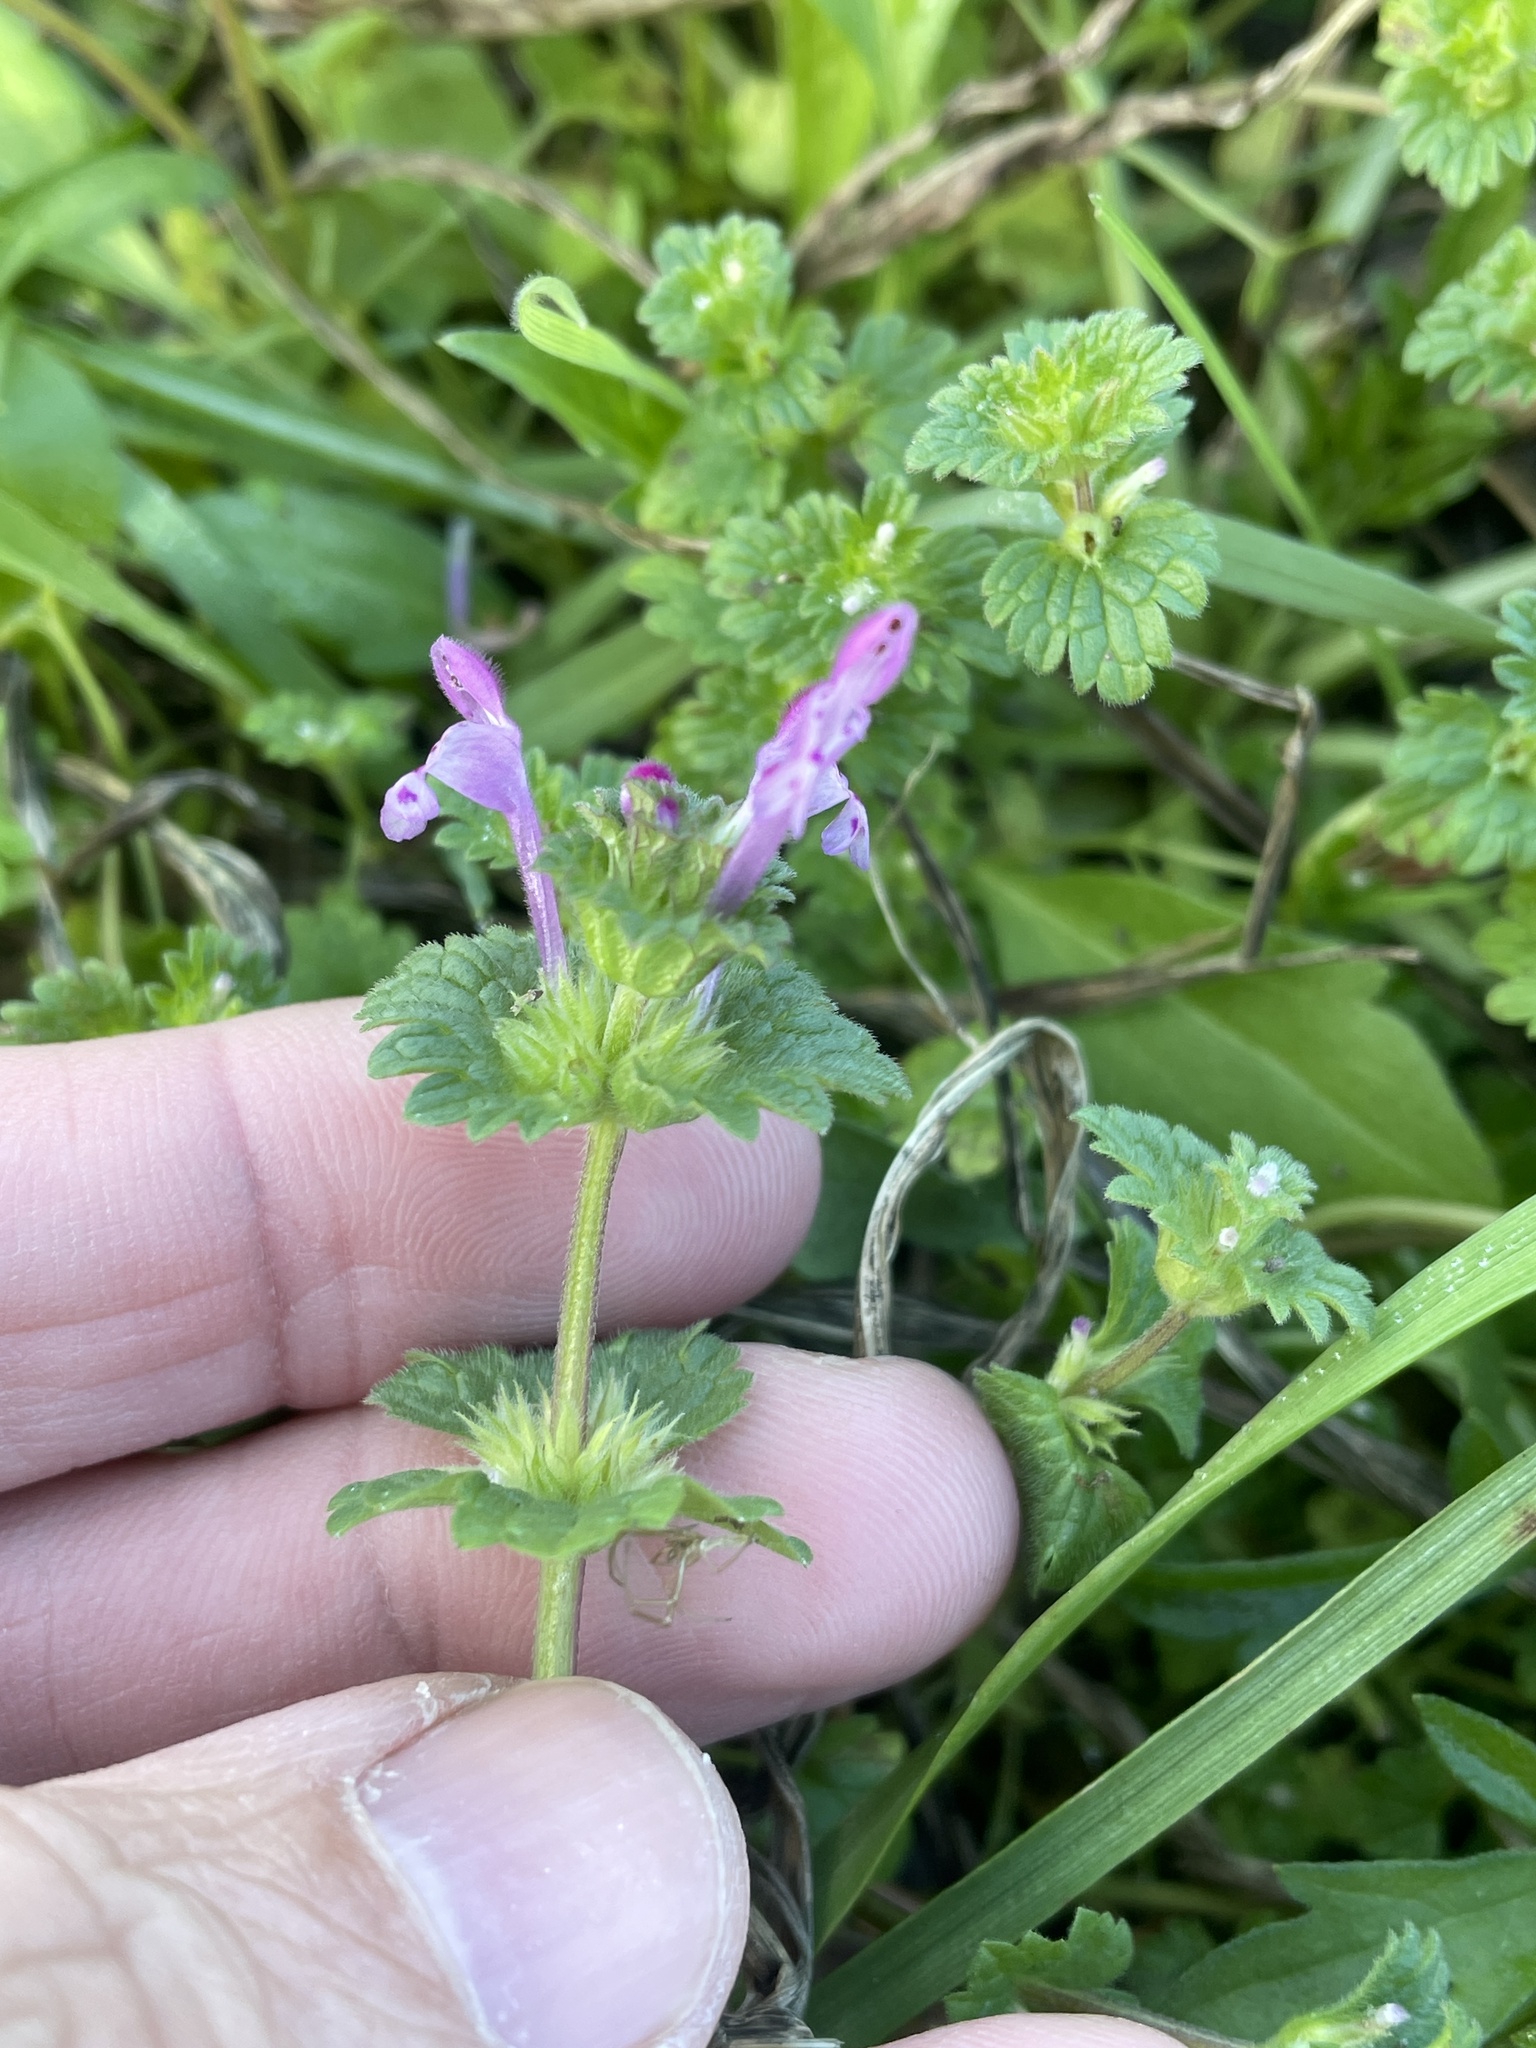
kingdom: Plantae
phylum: Tracheophyta
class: Magnoliopsida
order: Lamiales
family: Lamiaceae
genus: Lamium
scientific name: Lamium amplexicaule
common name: Henbit dead-nettle
